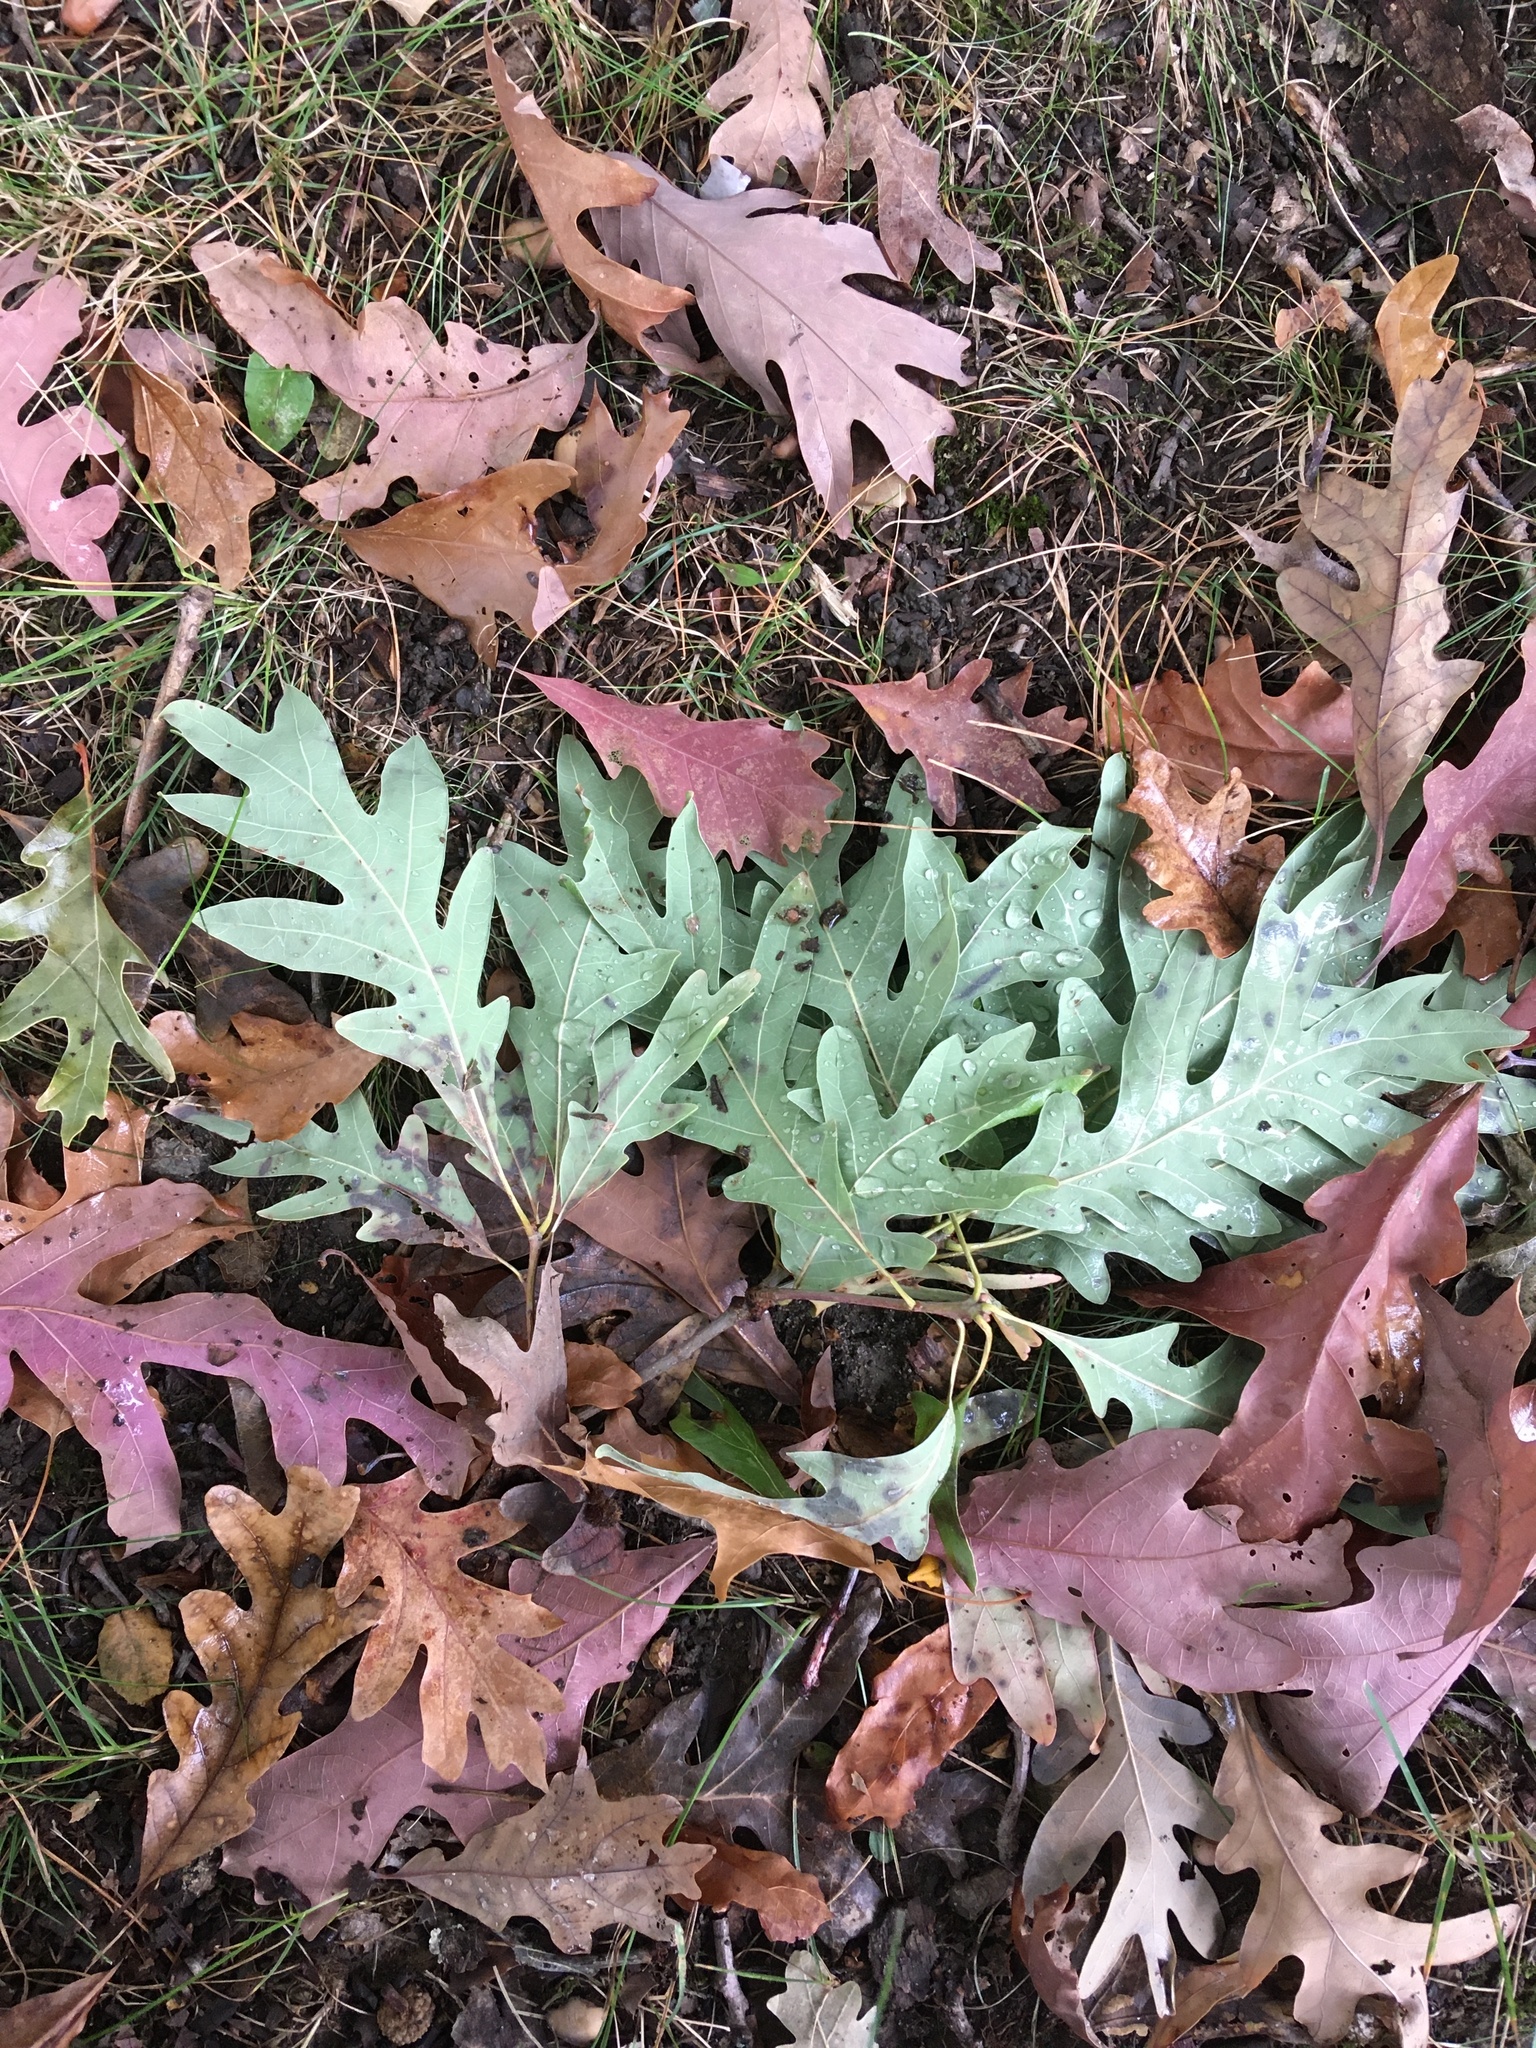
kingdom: Plantae
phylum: Tracheophyta
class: Magnoliopsida
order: Fagales
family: Fagaceae
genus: Quercus
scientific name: Quercus alba
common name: White oak
